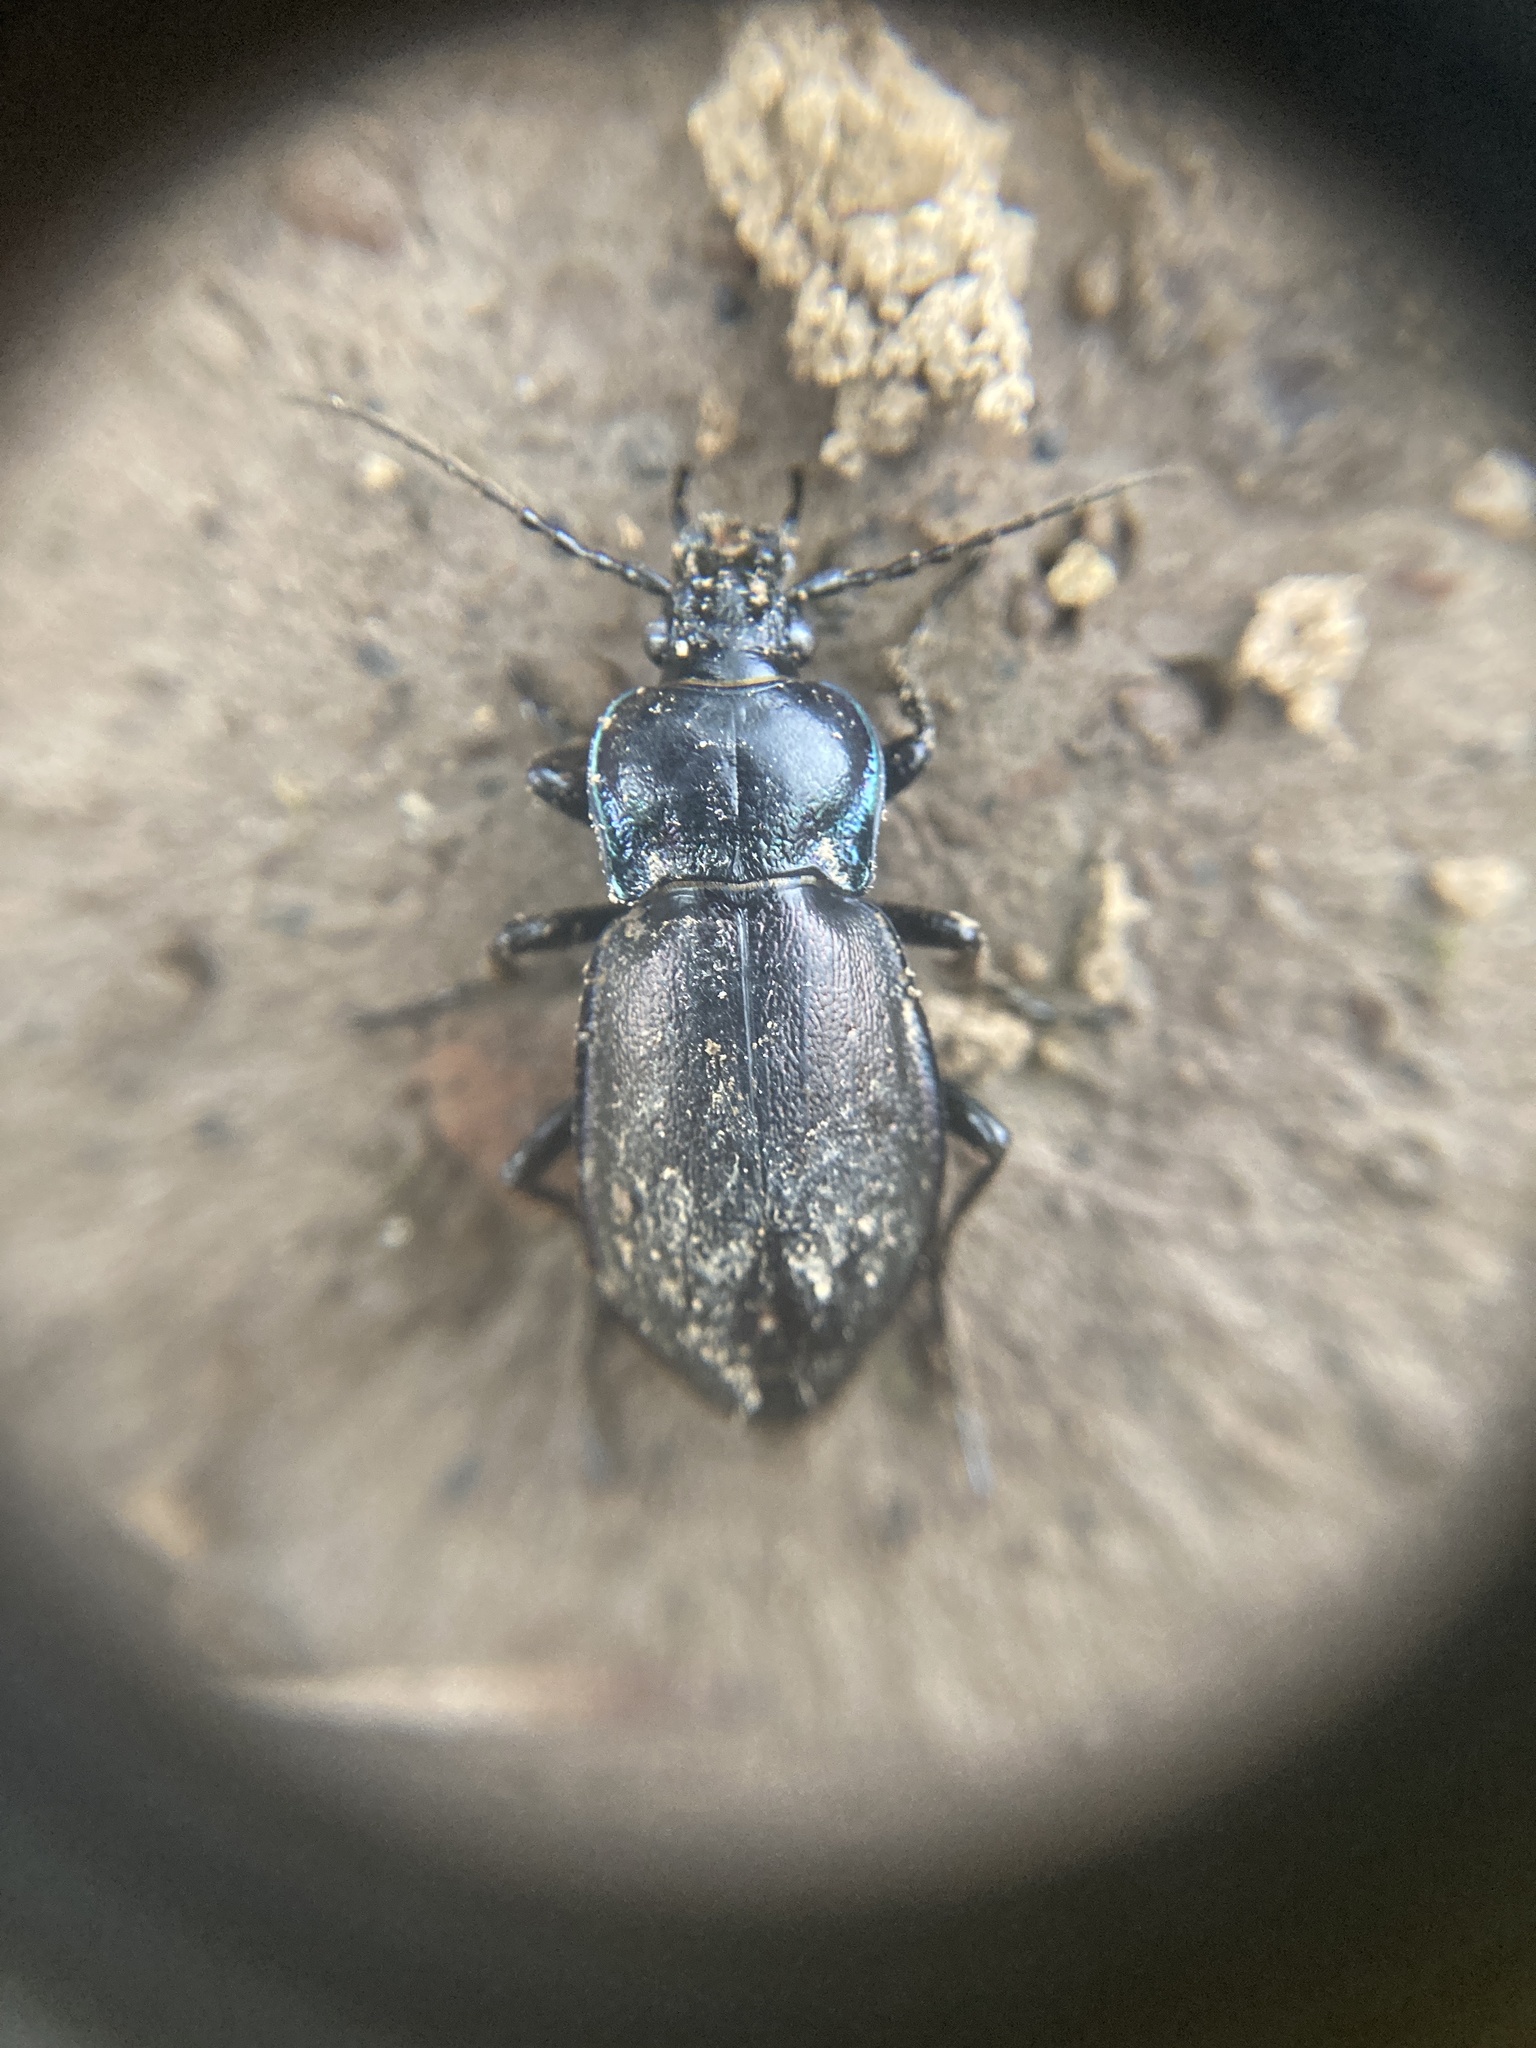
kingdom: Animalia
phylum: Arthropoda
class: Insecta
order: Coleoptera
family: Carabidae
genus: Carabus
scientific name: Carabus nemoralis
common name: European ground beetle
